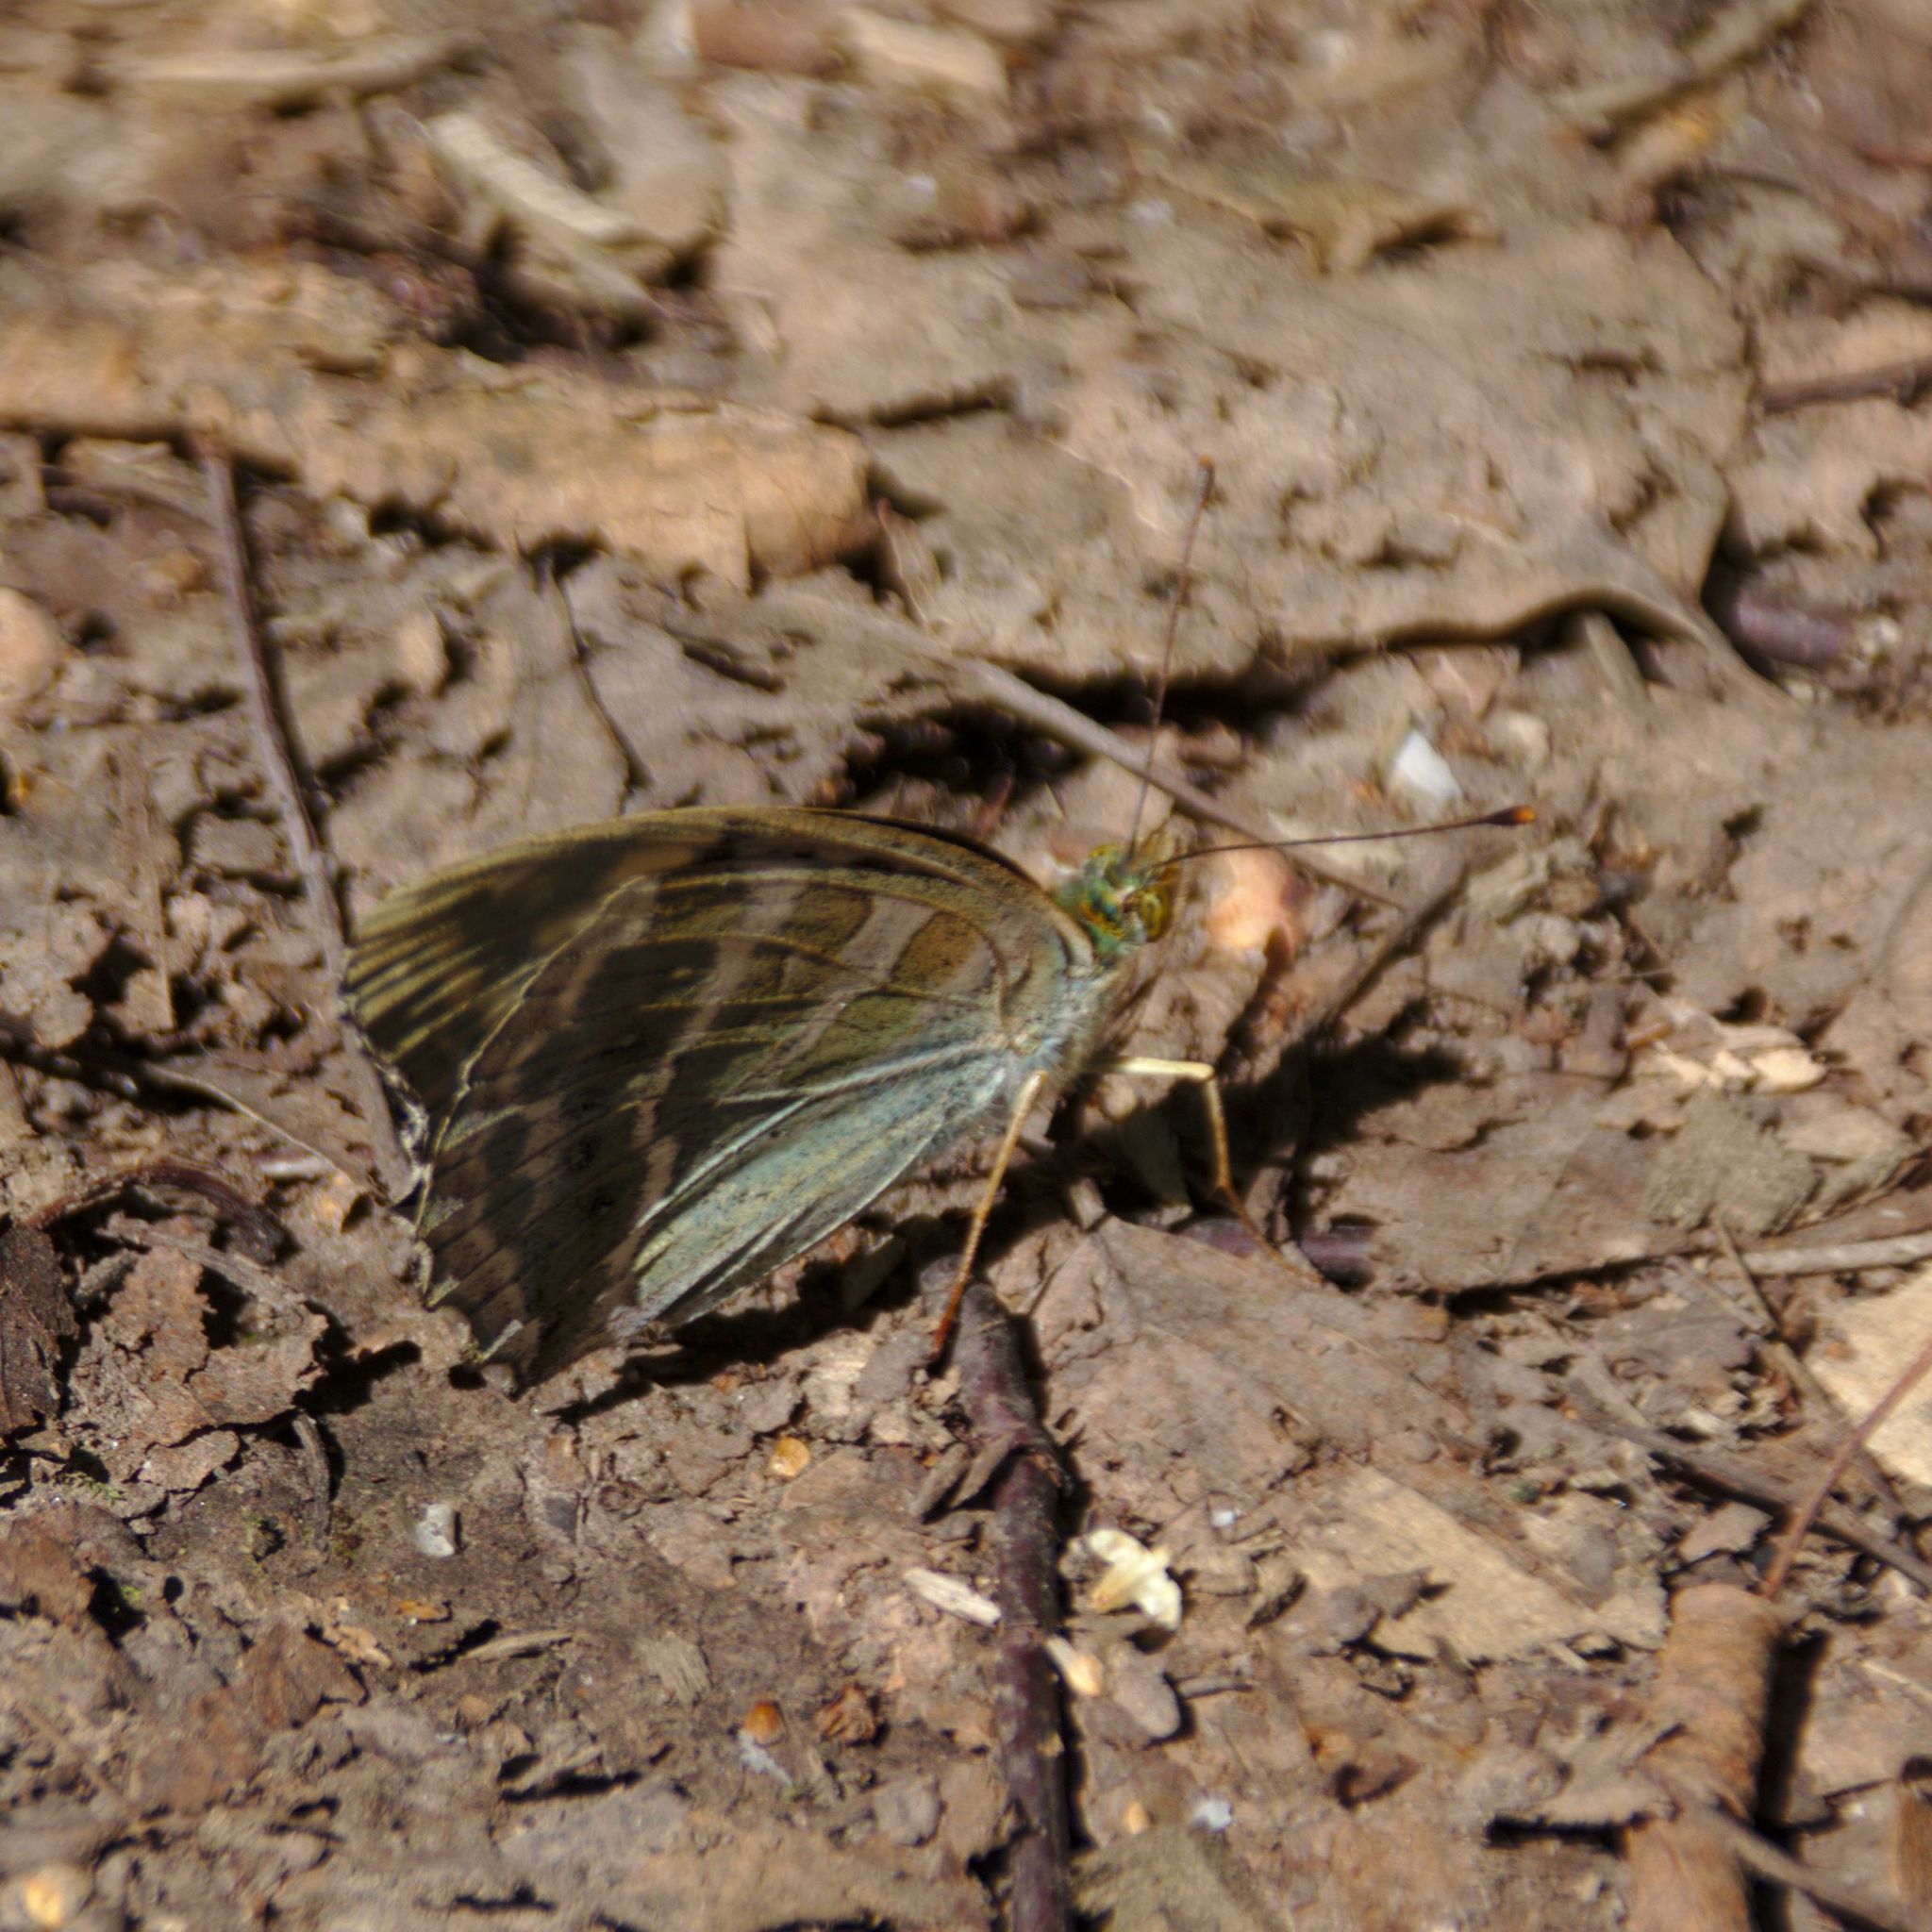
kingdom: Animalia
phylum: Arthropoda
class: Insecta
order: Lepidoptera
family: Nymphalidae
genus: Argynnis
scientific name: Argynnis paphia
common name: Silver-washed fritillary
